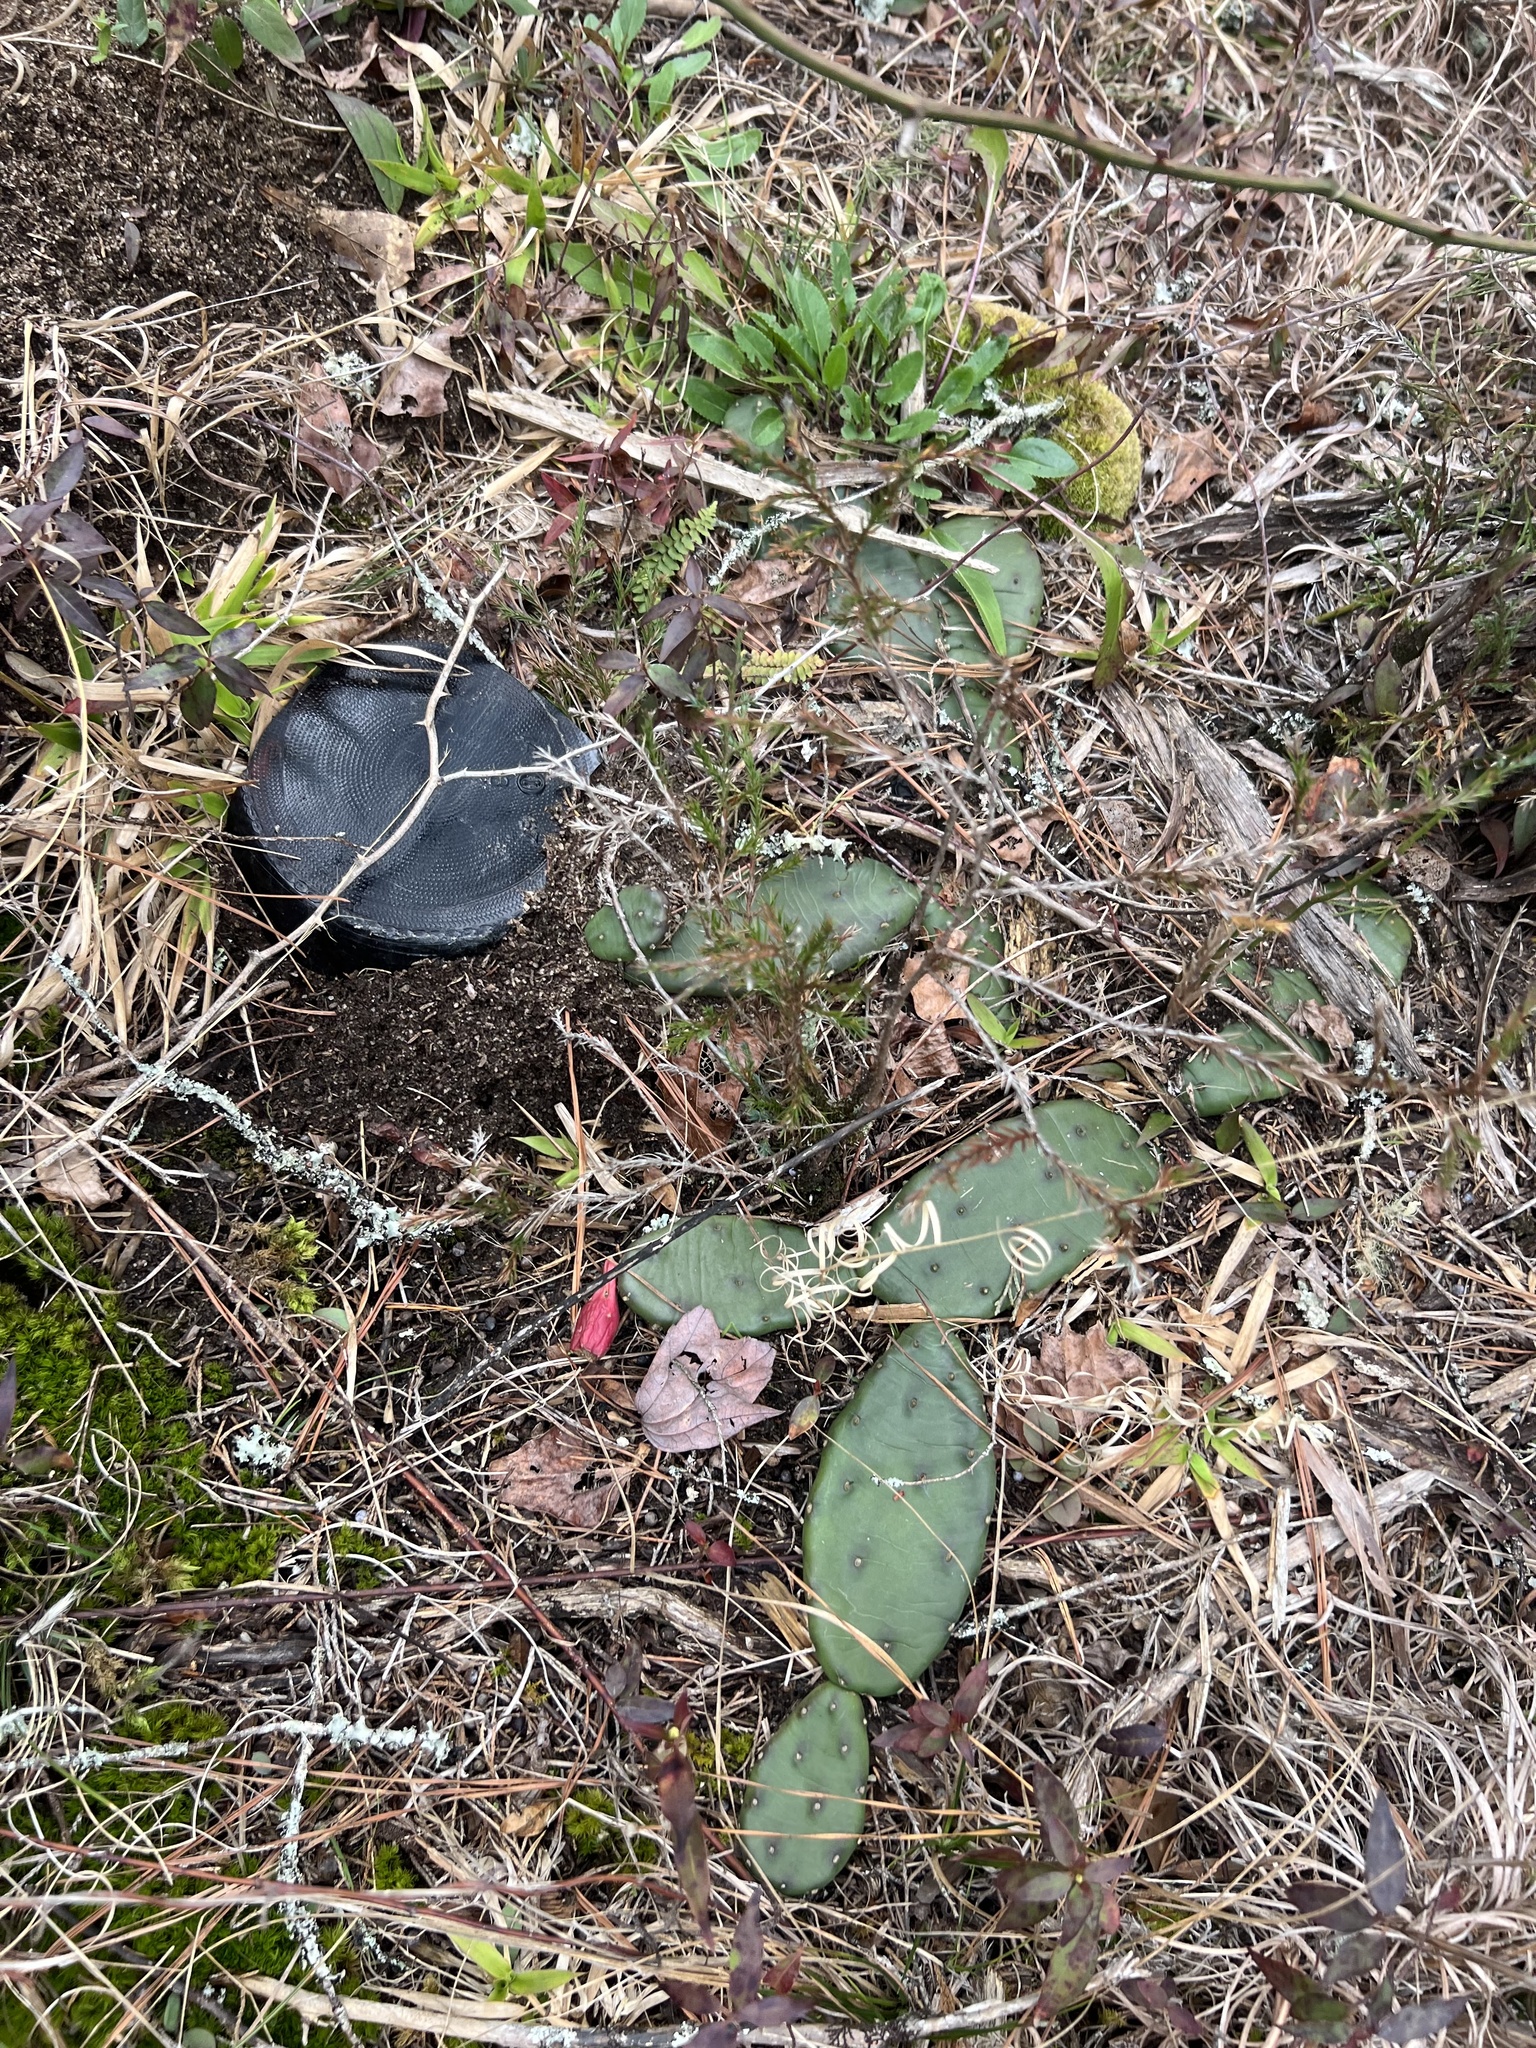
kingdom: Plantae
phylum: Tracheophyta
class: Magnoliopsida
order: Caryophyllales
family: Cactaceae
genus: Opuntia
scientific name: Opuntia mesacantha
